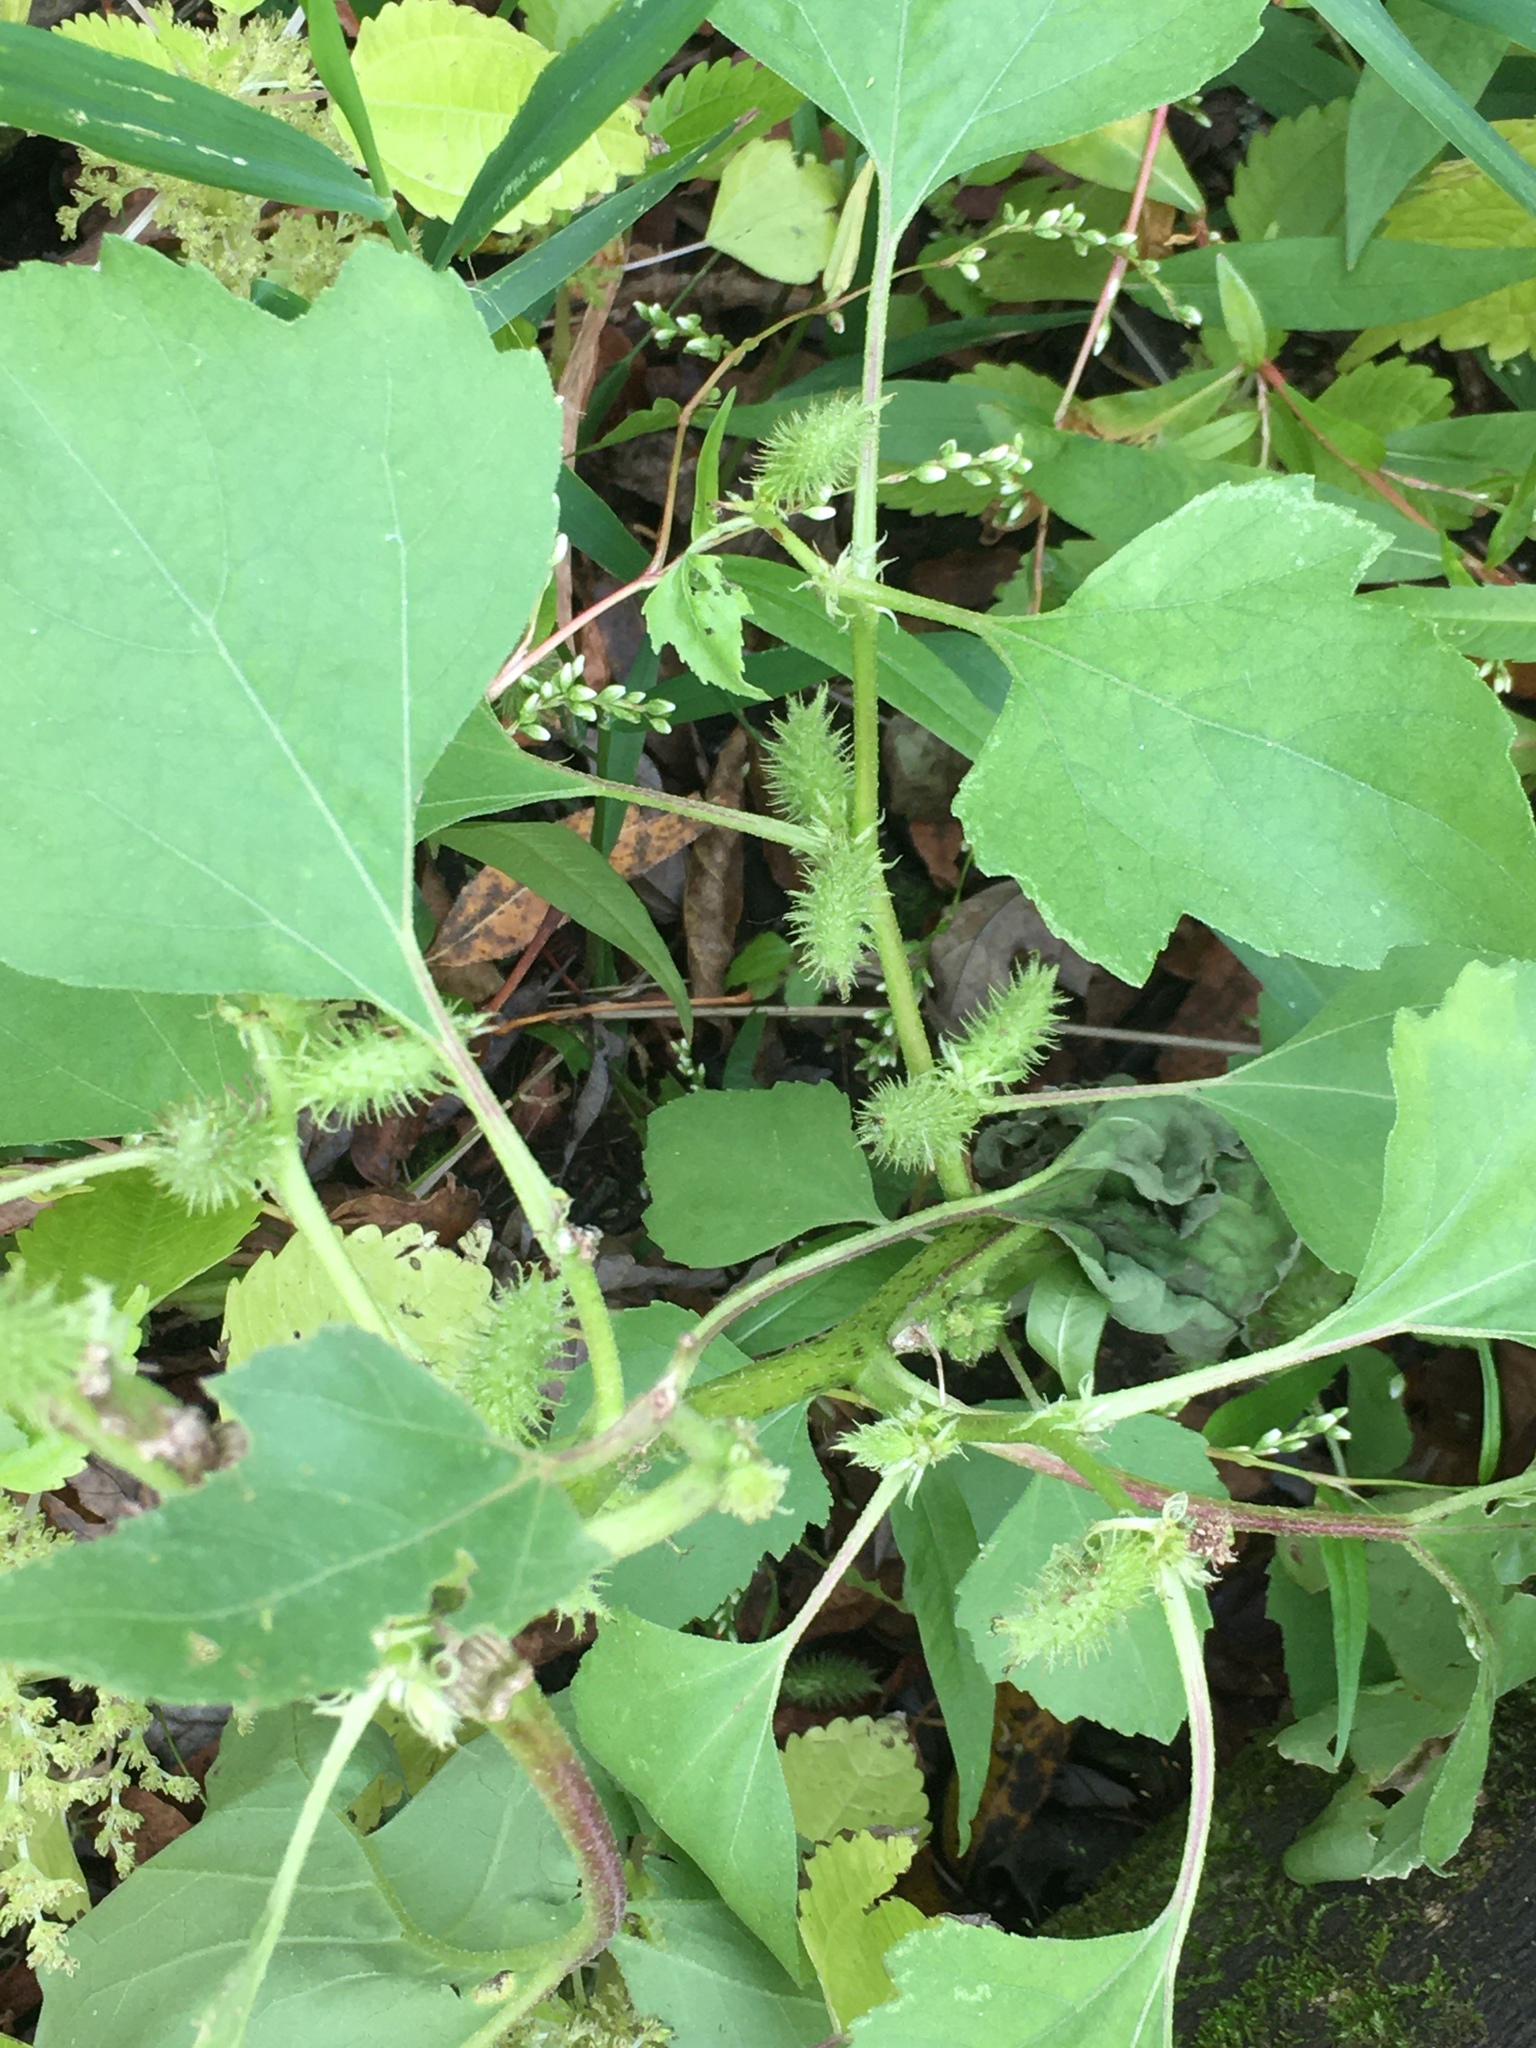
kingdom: Plantae
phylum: Tracheophyta
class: Magnoliopsida
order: Asterales
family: Asteraceae
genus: Xanthium
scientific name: Xanthium strumarium
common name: Rough cocklebur
